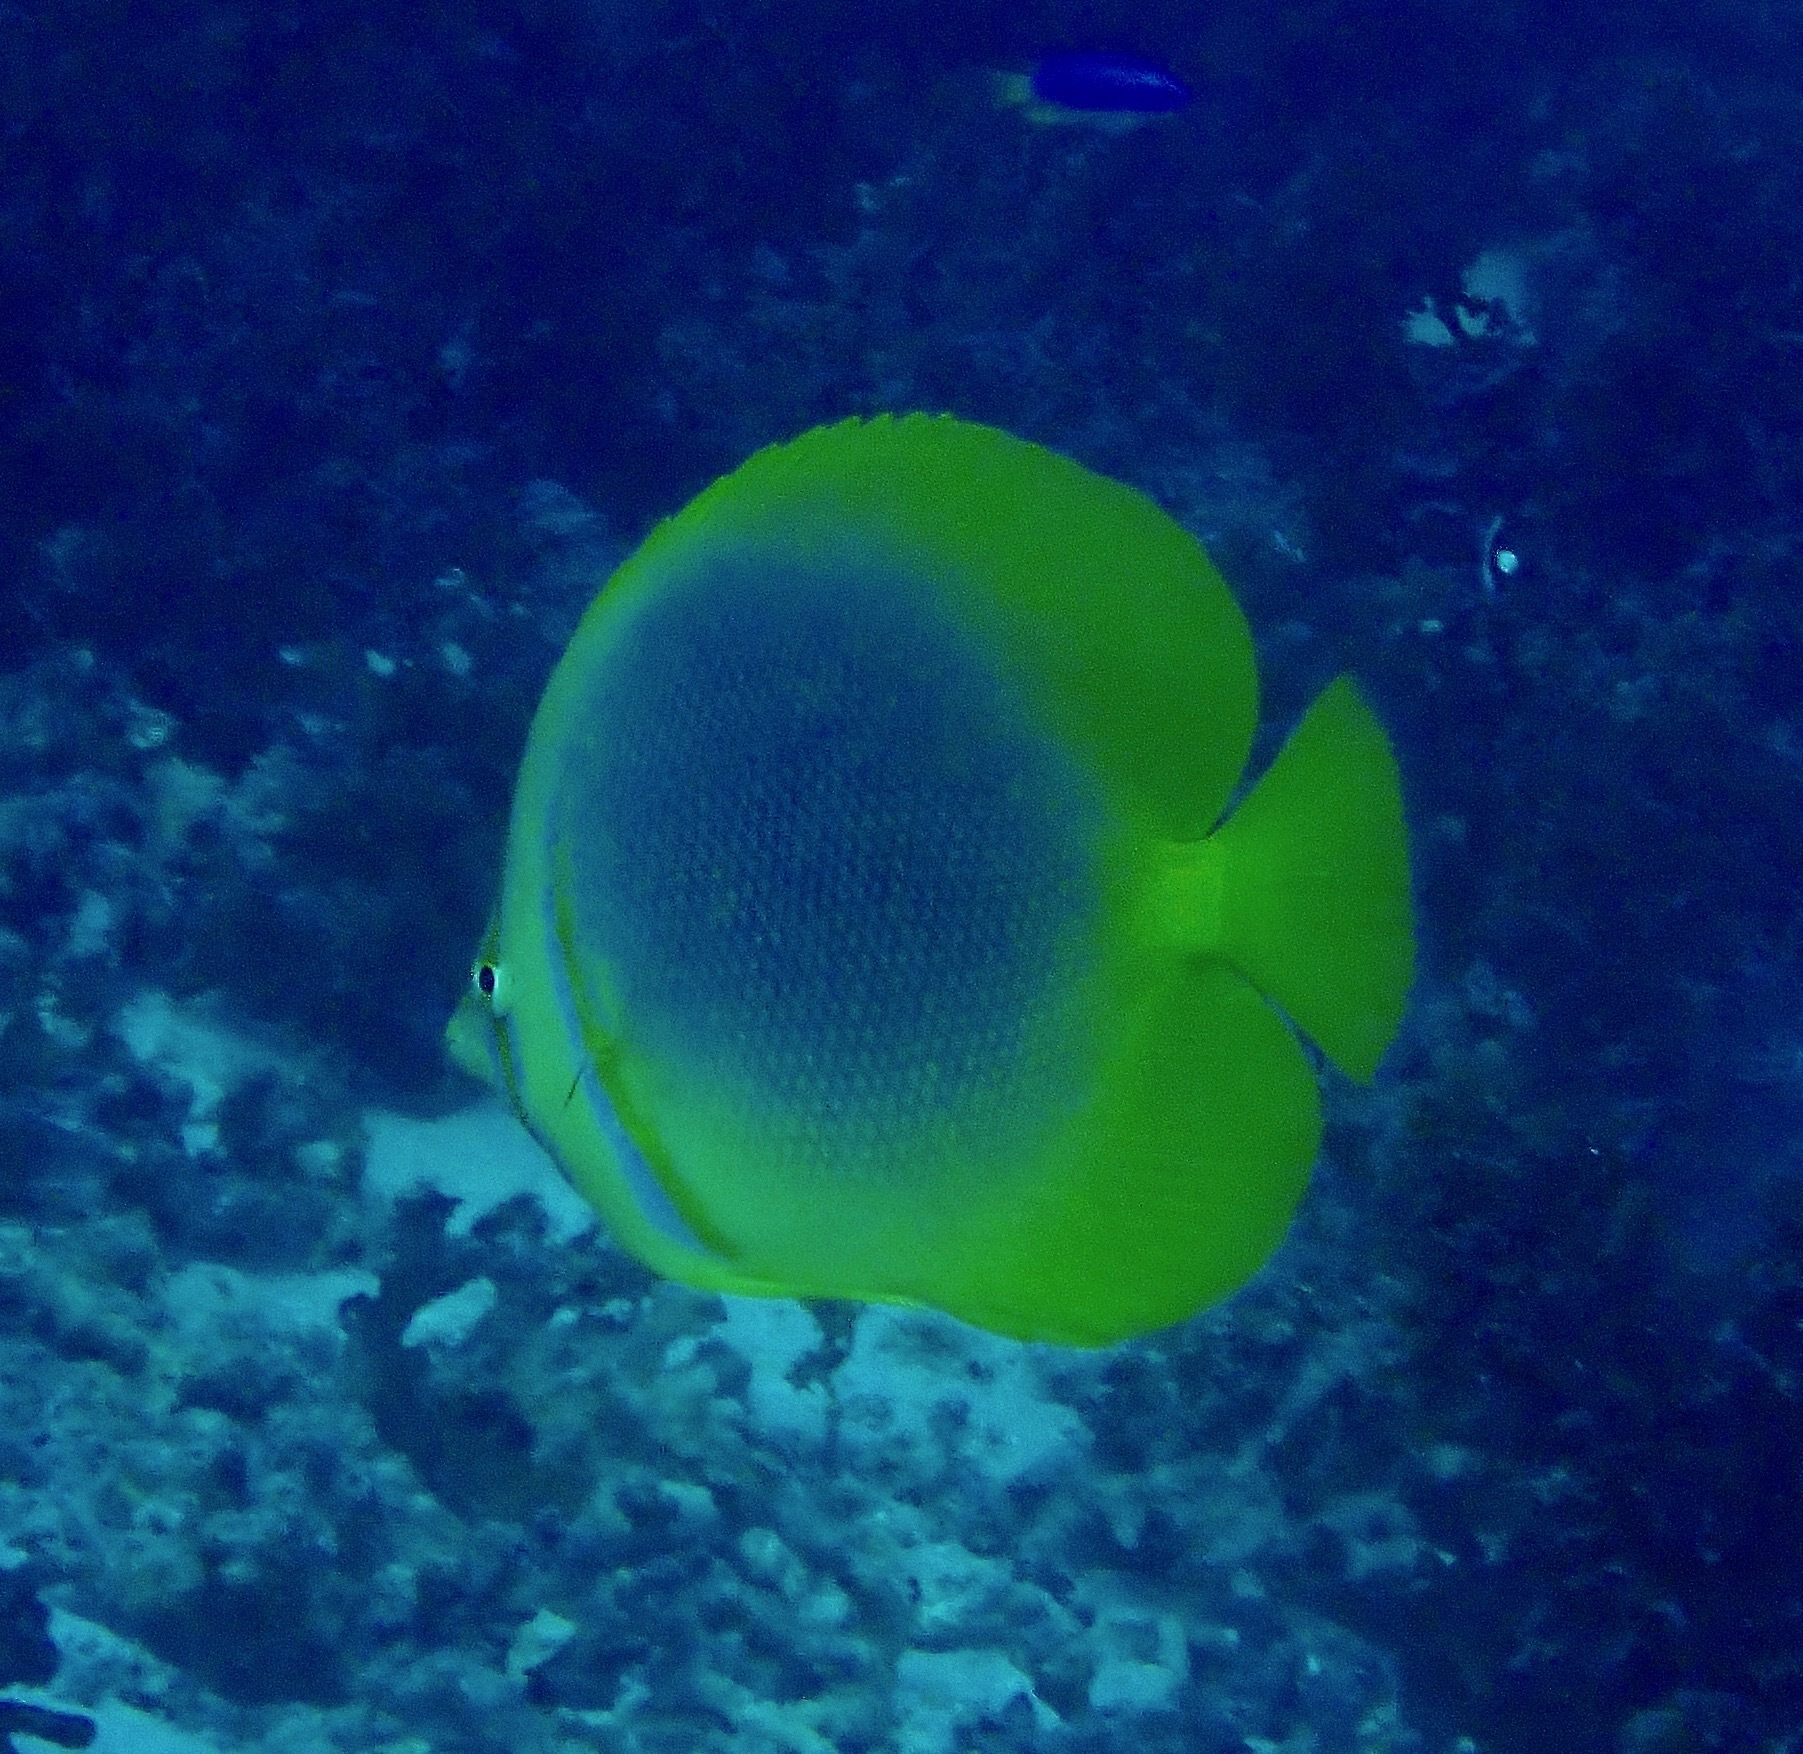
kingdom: Animalia
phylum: Chordata
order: Perciformes
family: Chaetodontidae
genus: Chaetodon
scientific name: Chaetodon aureofasciatus
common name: Golden butterflyfish
